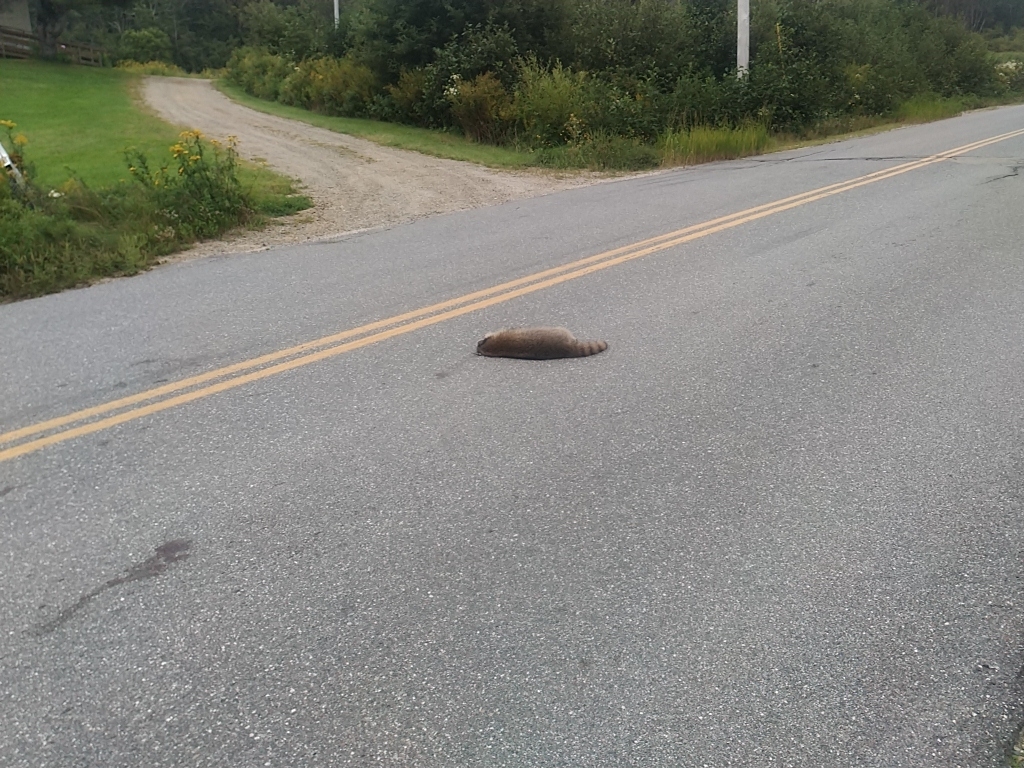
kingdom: Animalia
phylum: Chordata
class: Mammalia
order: Carnivora
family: Procyonidae
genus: Procyon
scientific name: Procyon lotor
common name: Raccoon
